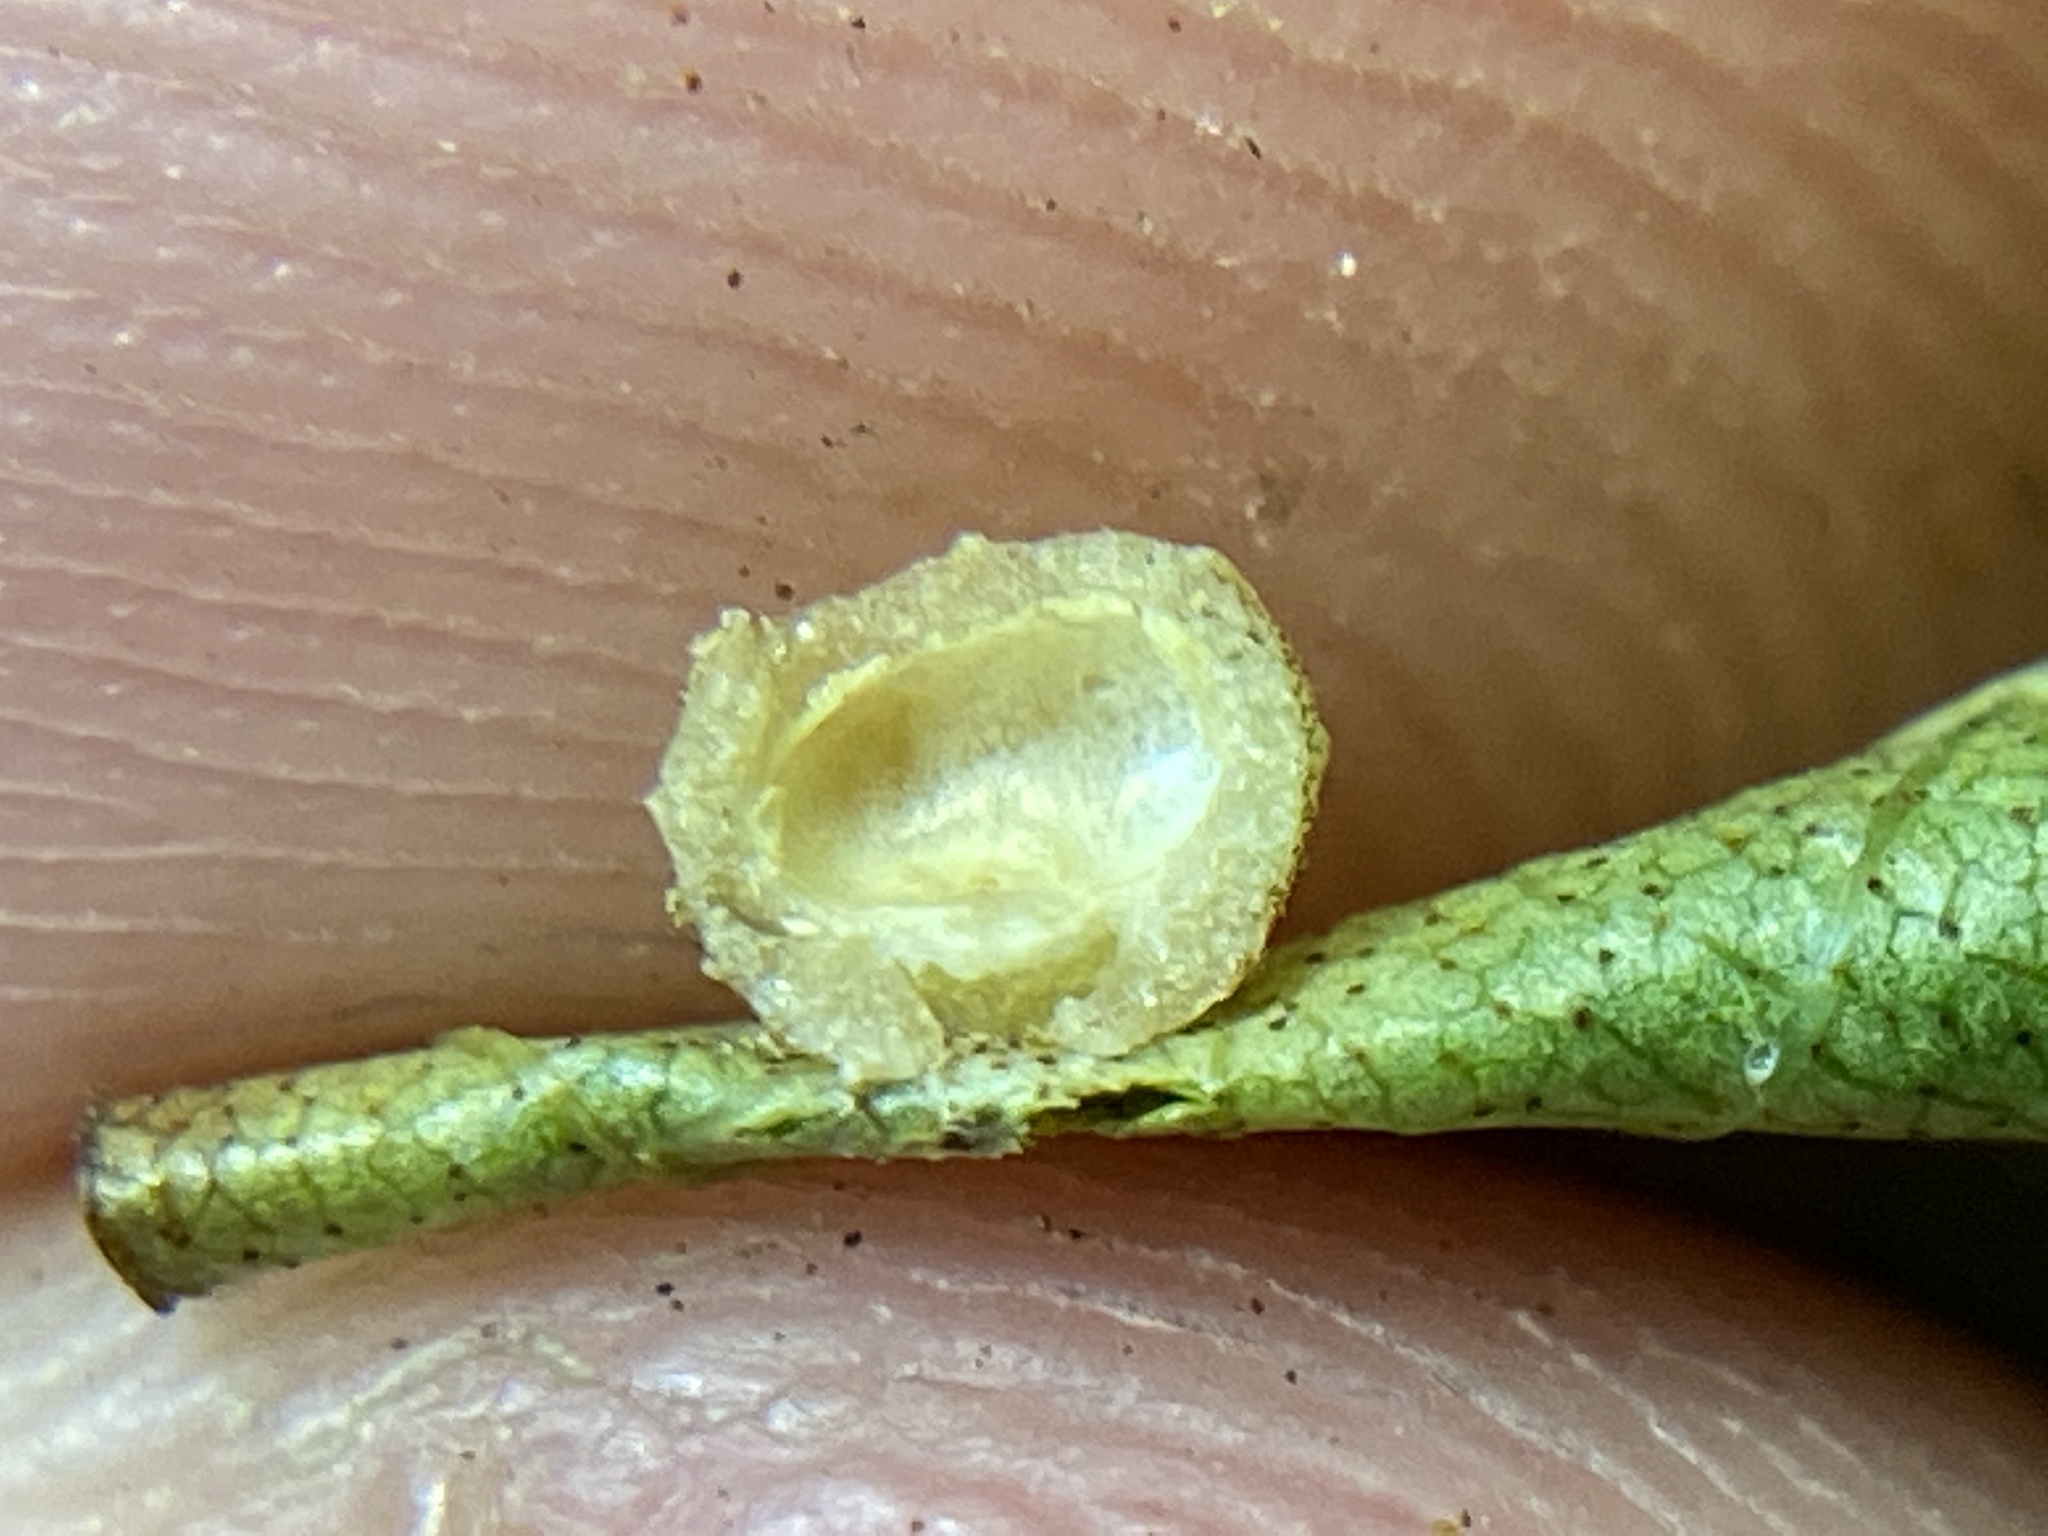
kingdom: Animalia
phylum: Arthropoda
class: Insecta
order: Diptera
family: Cecidomyiidae
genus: Caryomyia
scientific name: Caryomyia tuberculata
